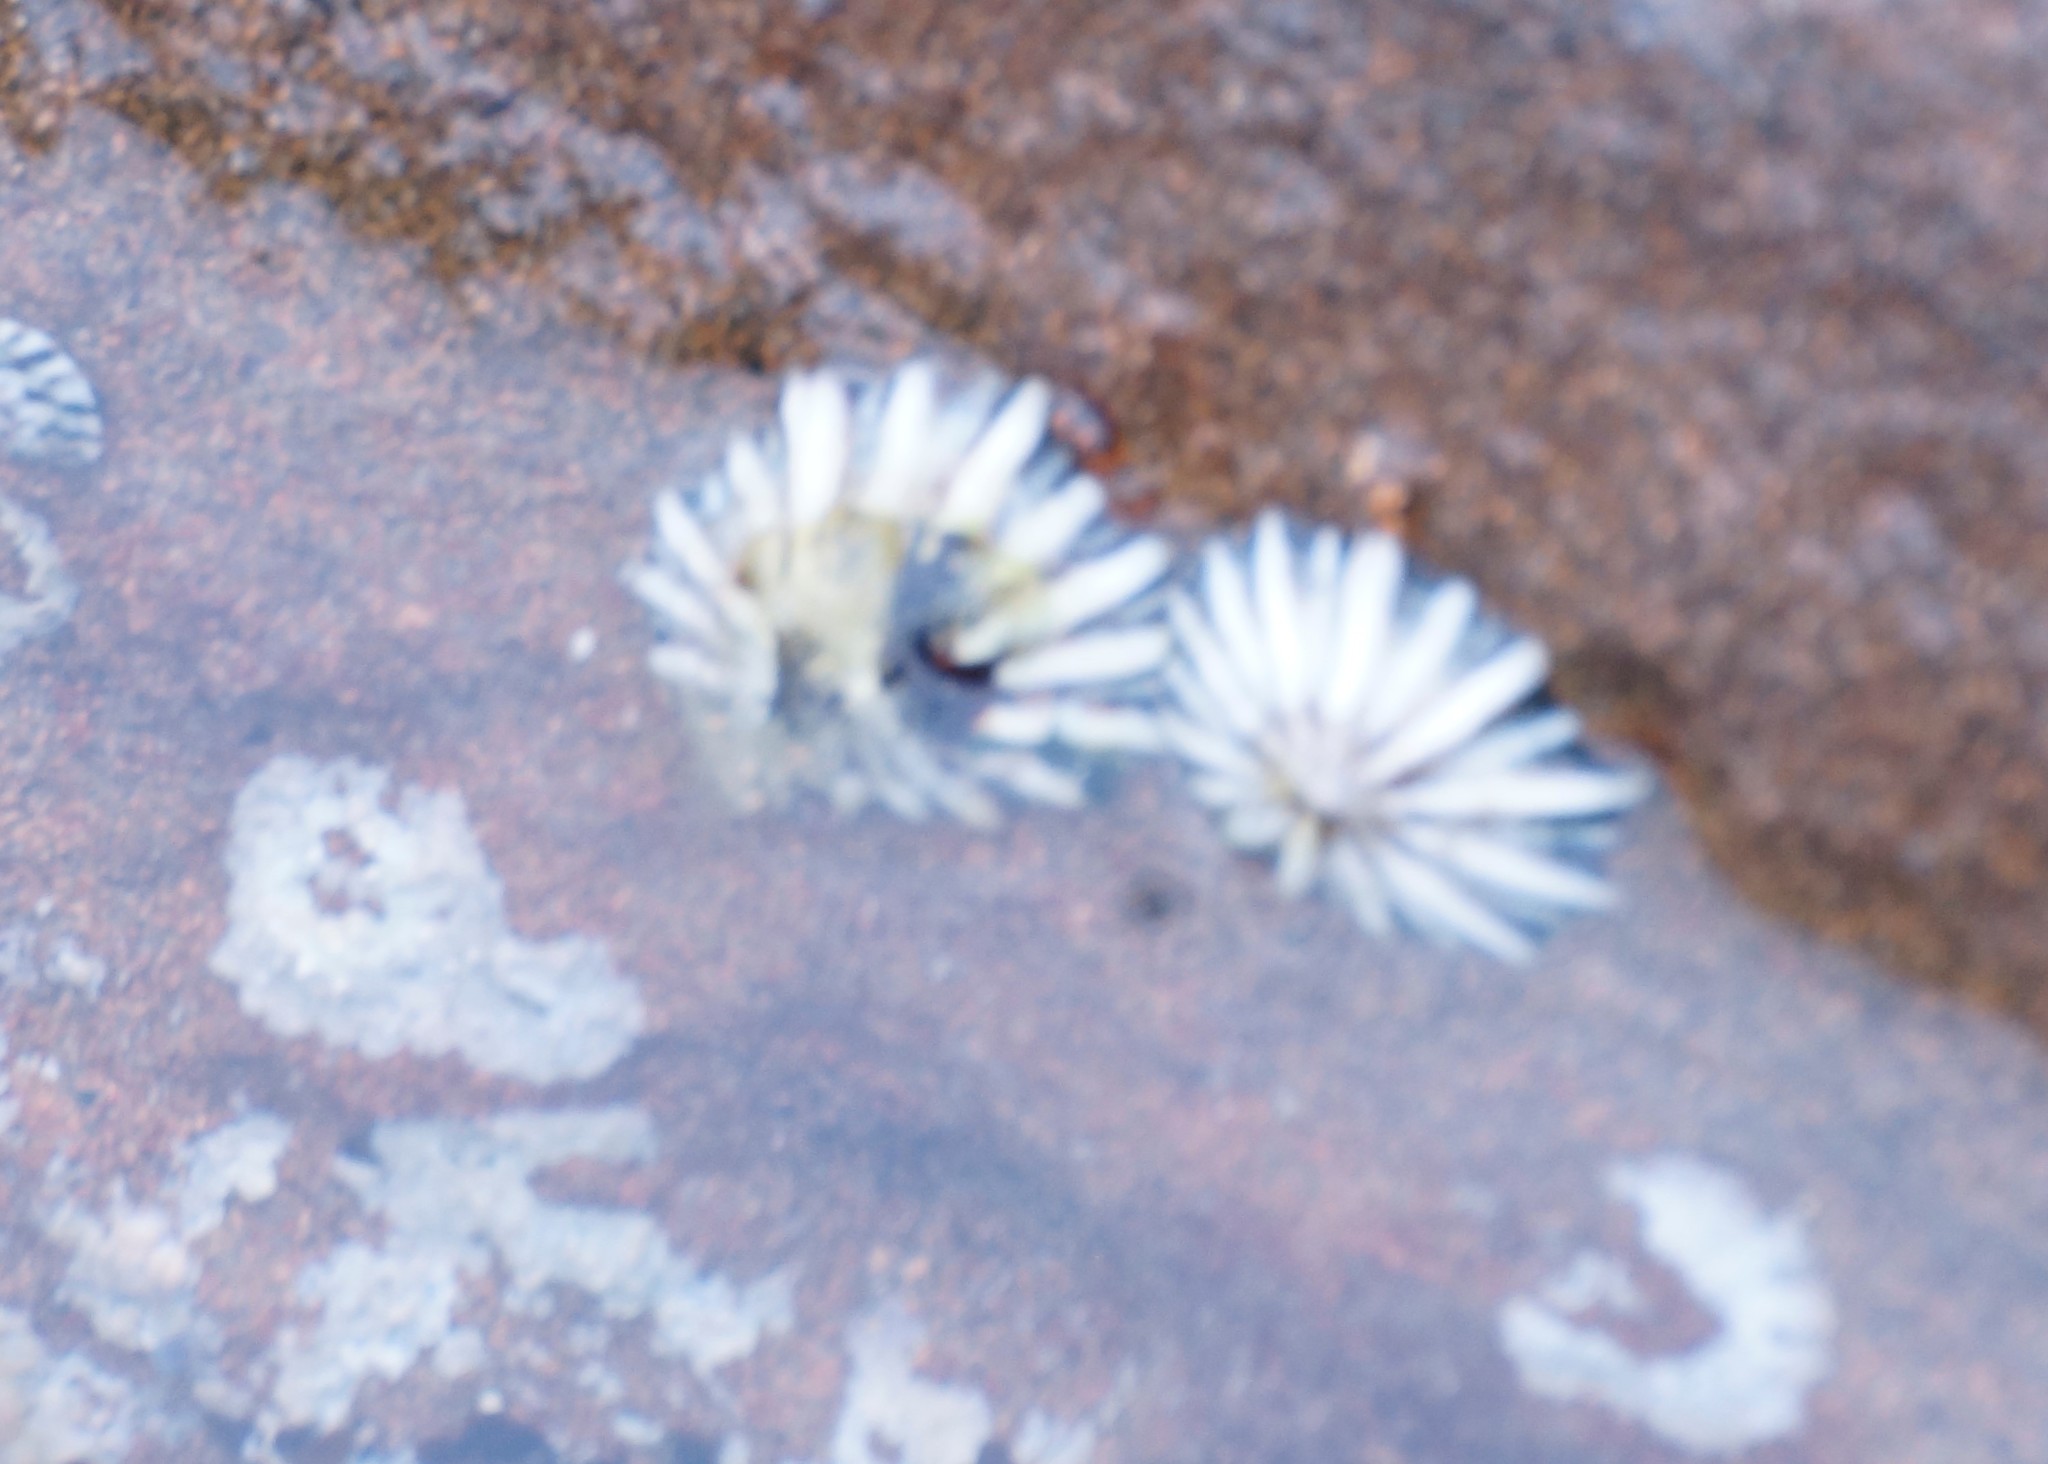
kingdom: Animalia
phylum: Mollusca
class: Gastropoda
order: Siphonariida
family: Siphonariidae
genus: Siphonaria
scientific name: Siphonaria diemenensis
